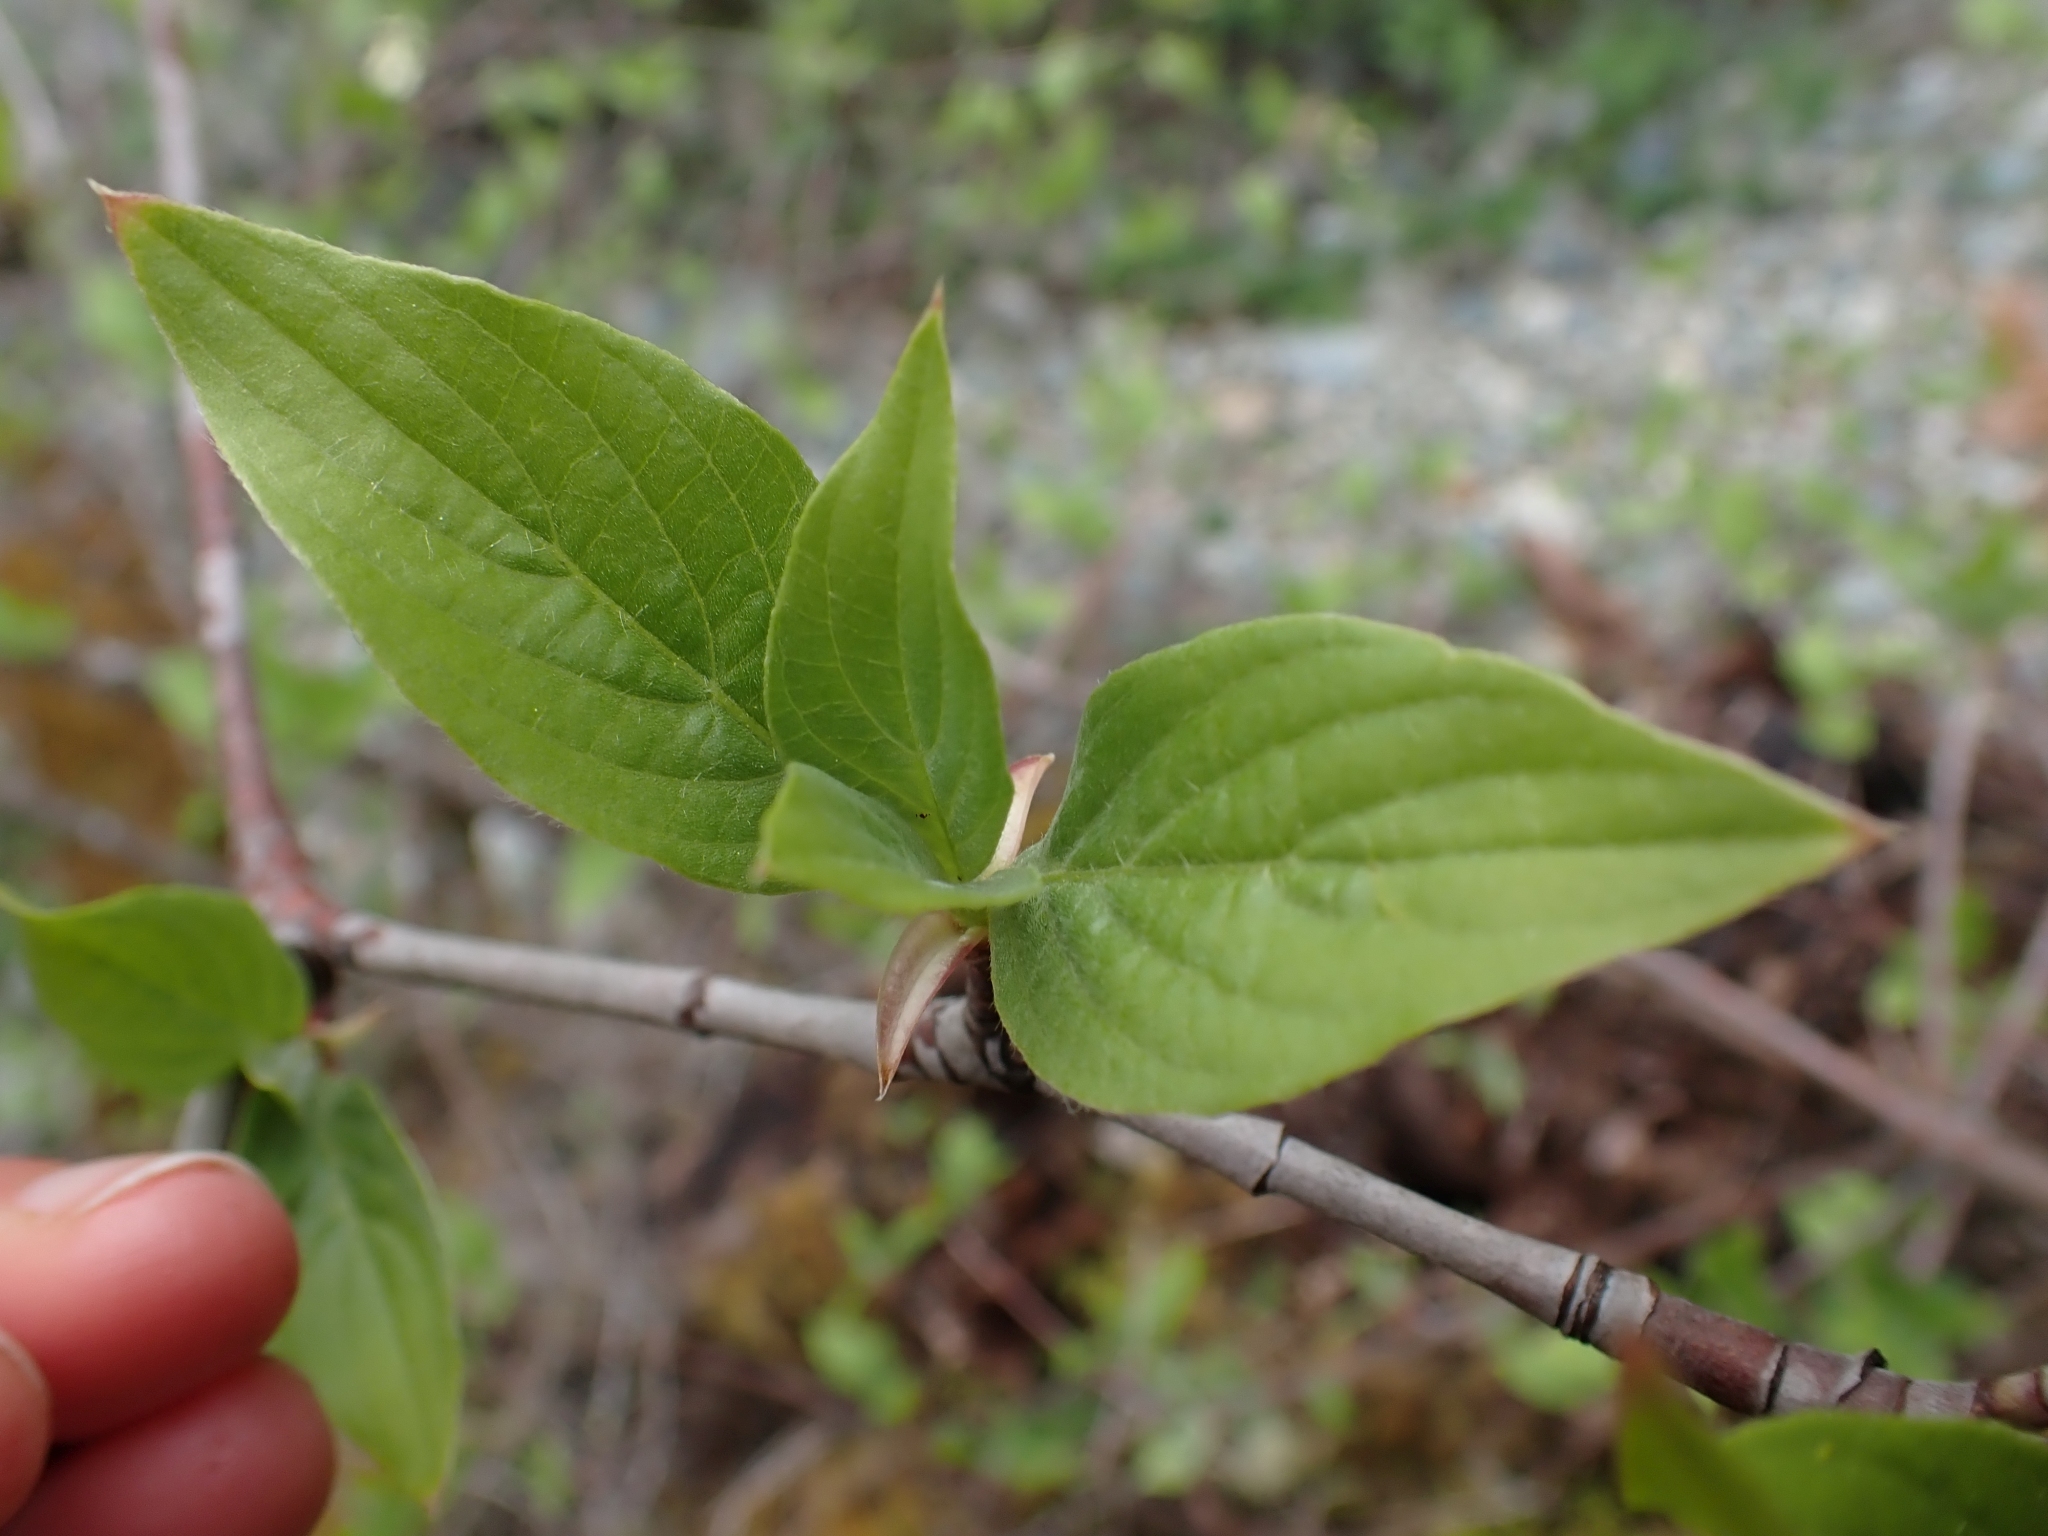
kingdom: Plantae
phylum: Tracheophyta
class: Magnoliopsida
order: Cornales
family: Cornaceae
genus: Cornus
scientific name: Cornus nuttallii
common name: Pacific dogwood
